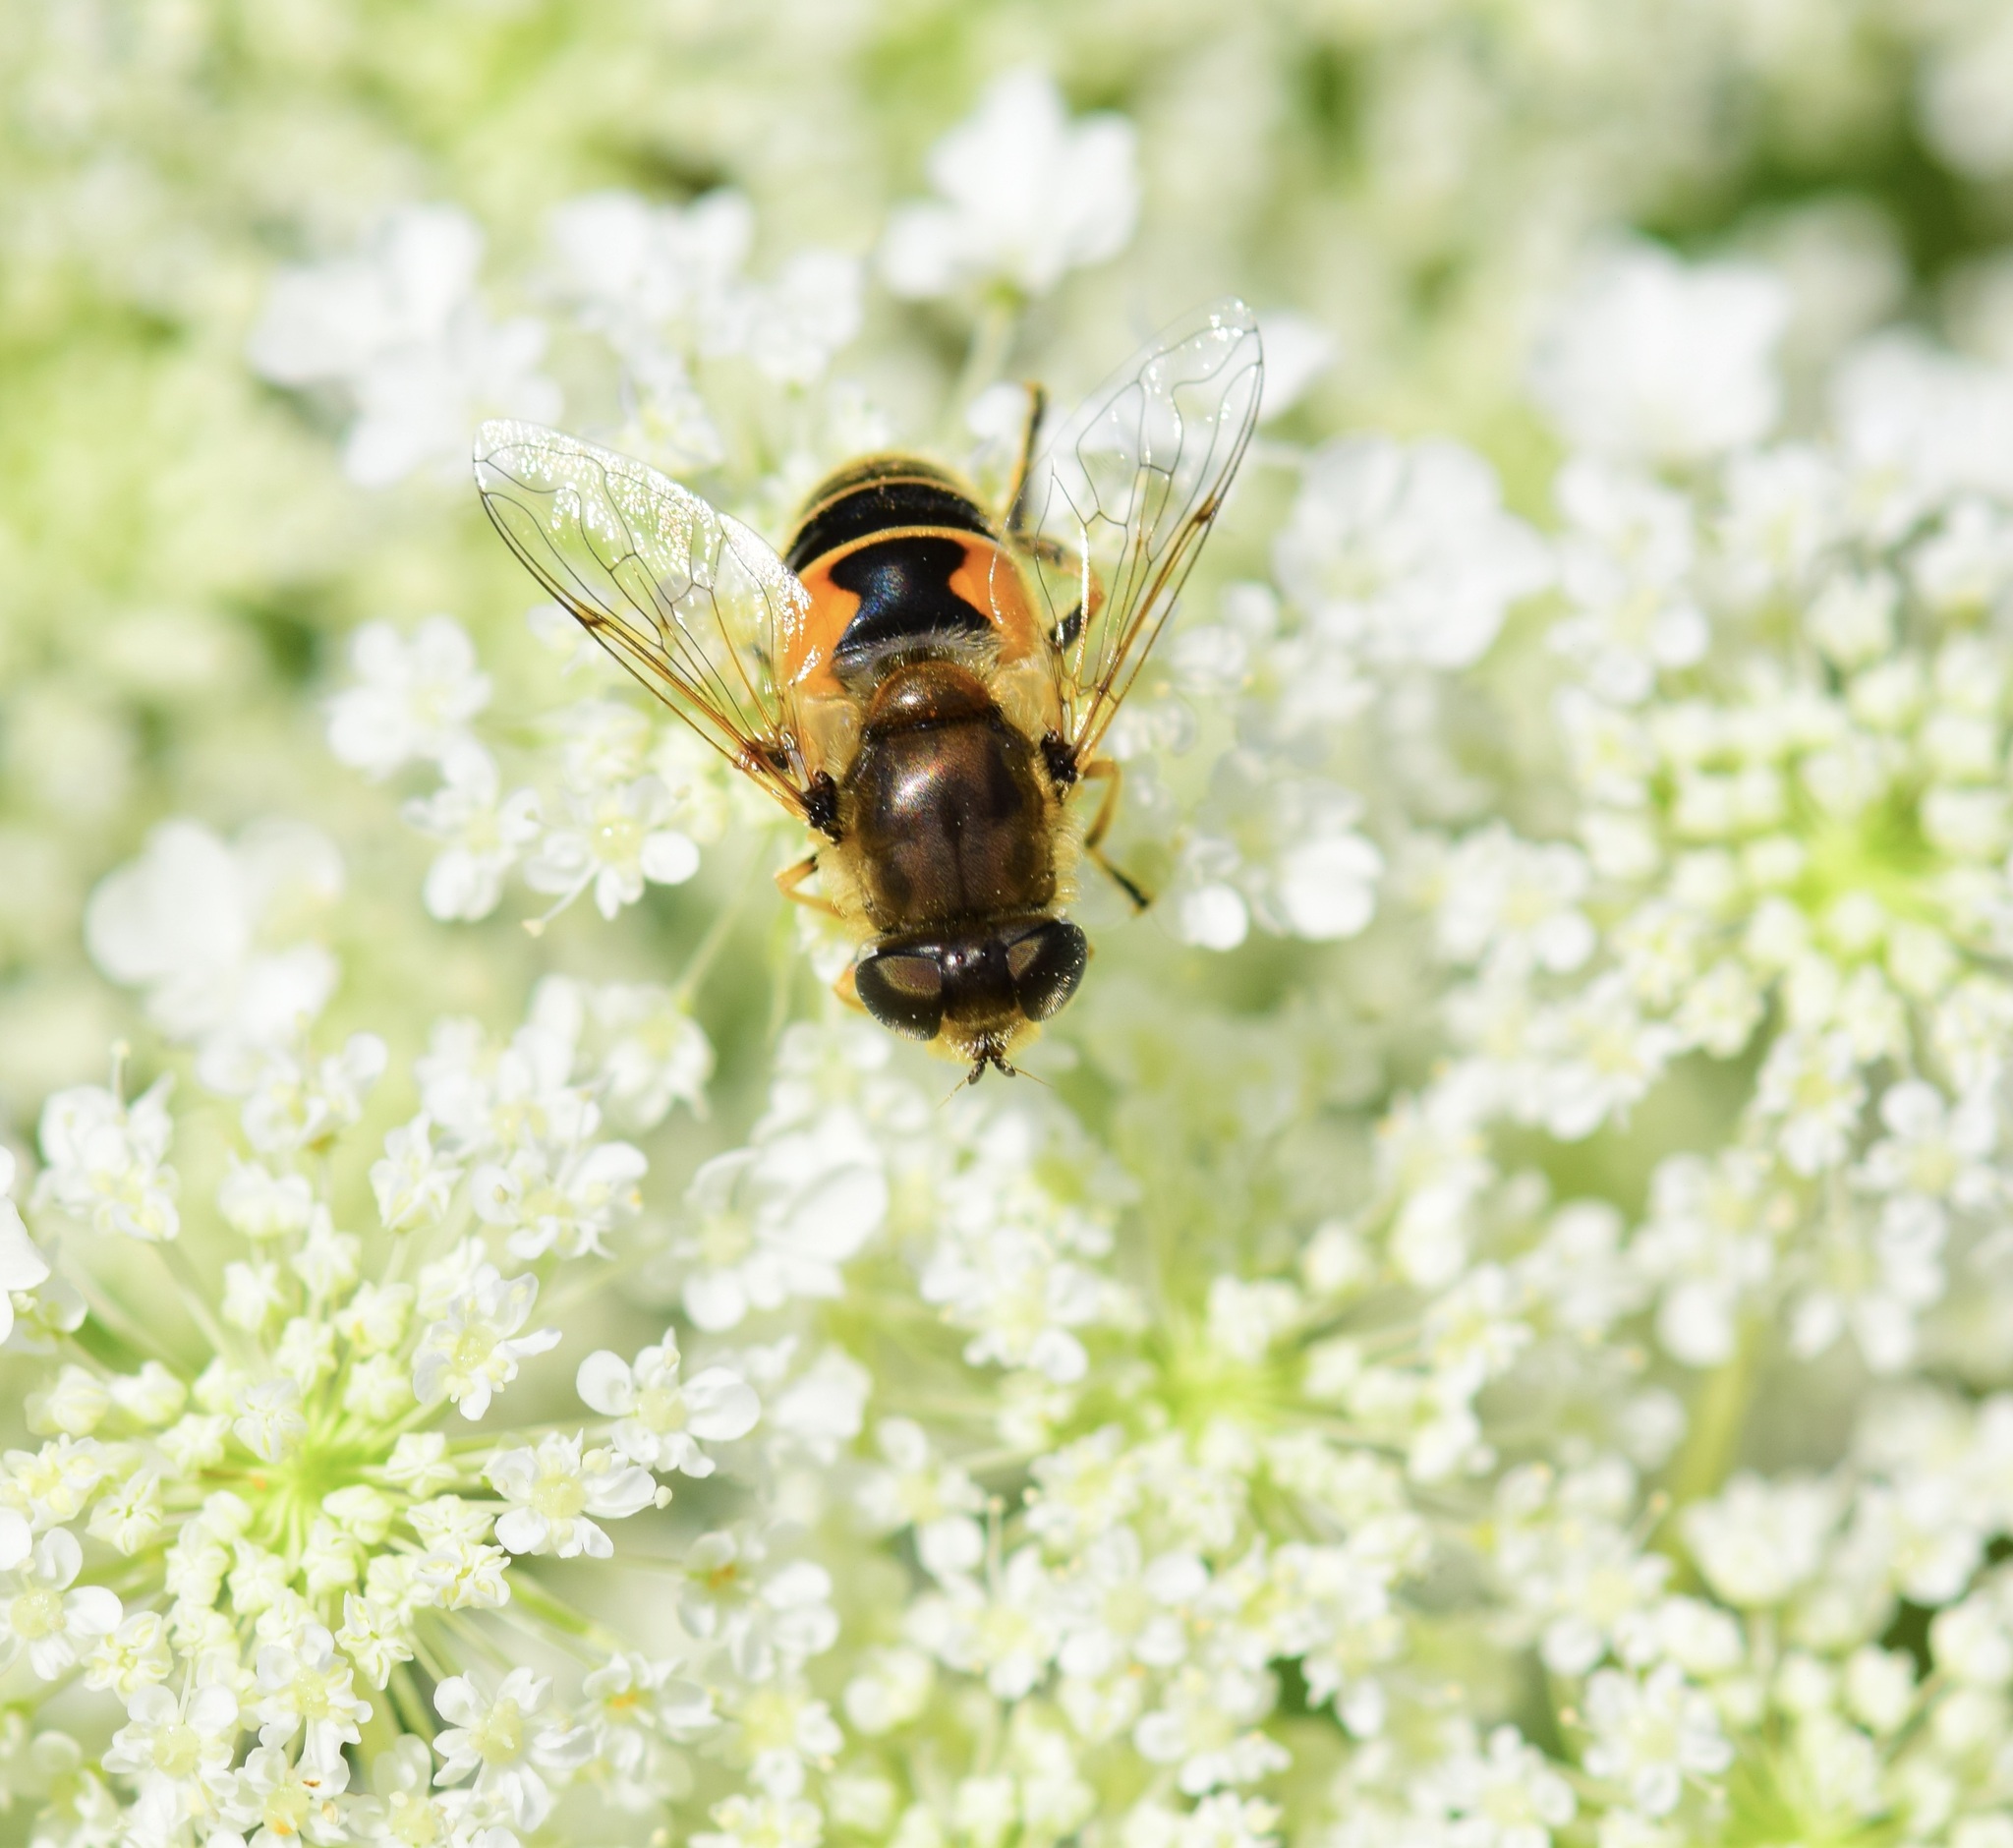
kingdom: Animalia
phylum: Arthropoda
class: Insecta
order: Diptera
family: Syrphidae
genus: Eristalis
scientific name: Eristalis arbustorum
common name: Hover fly
